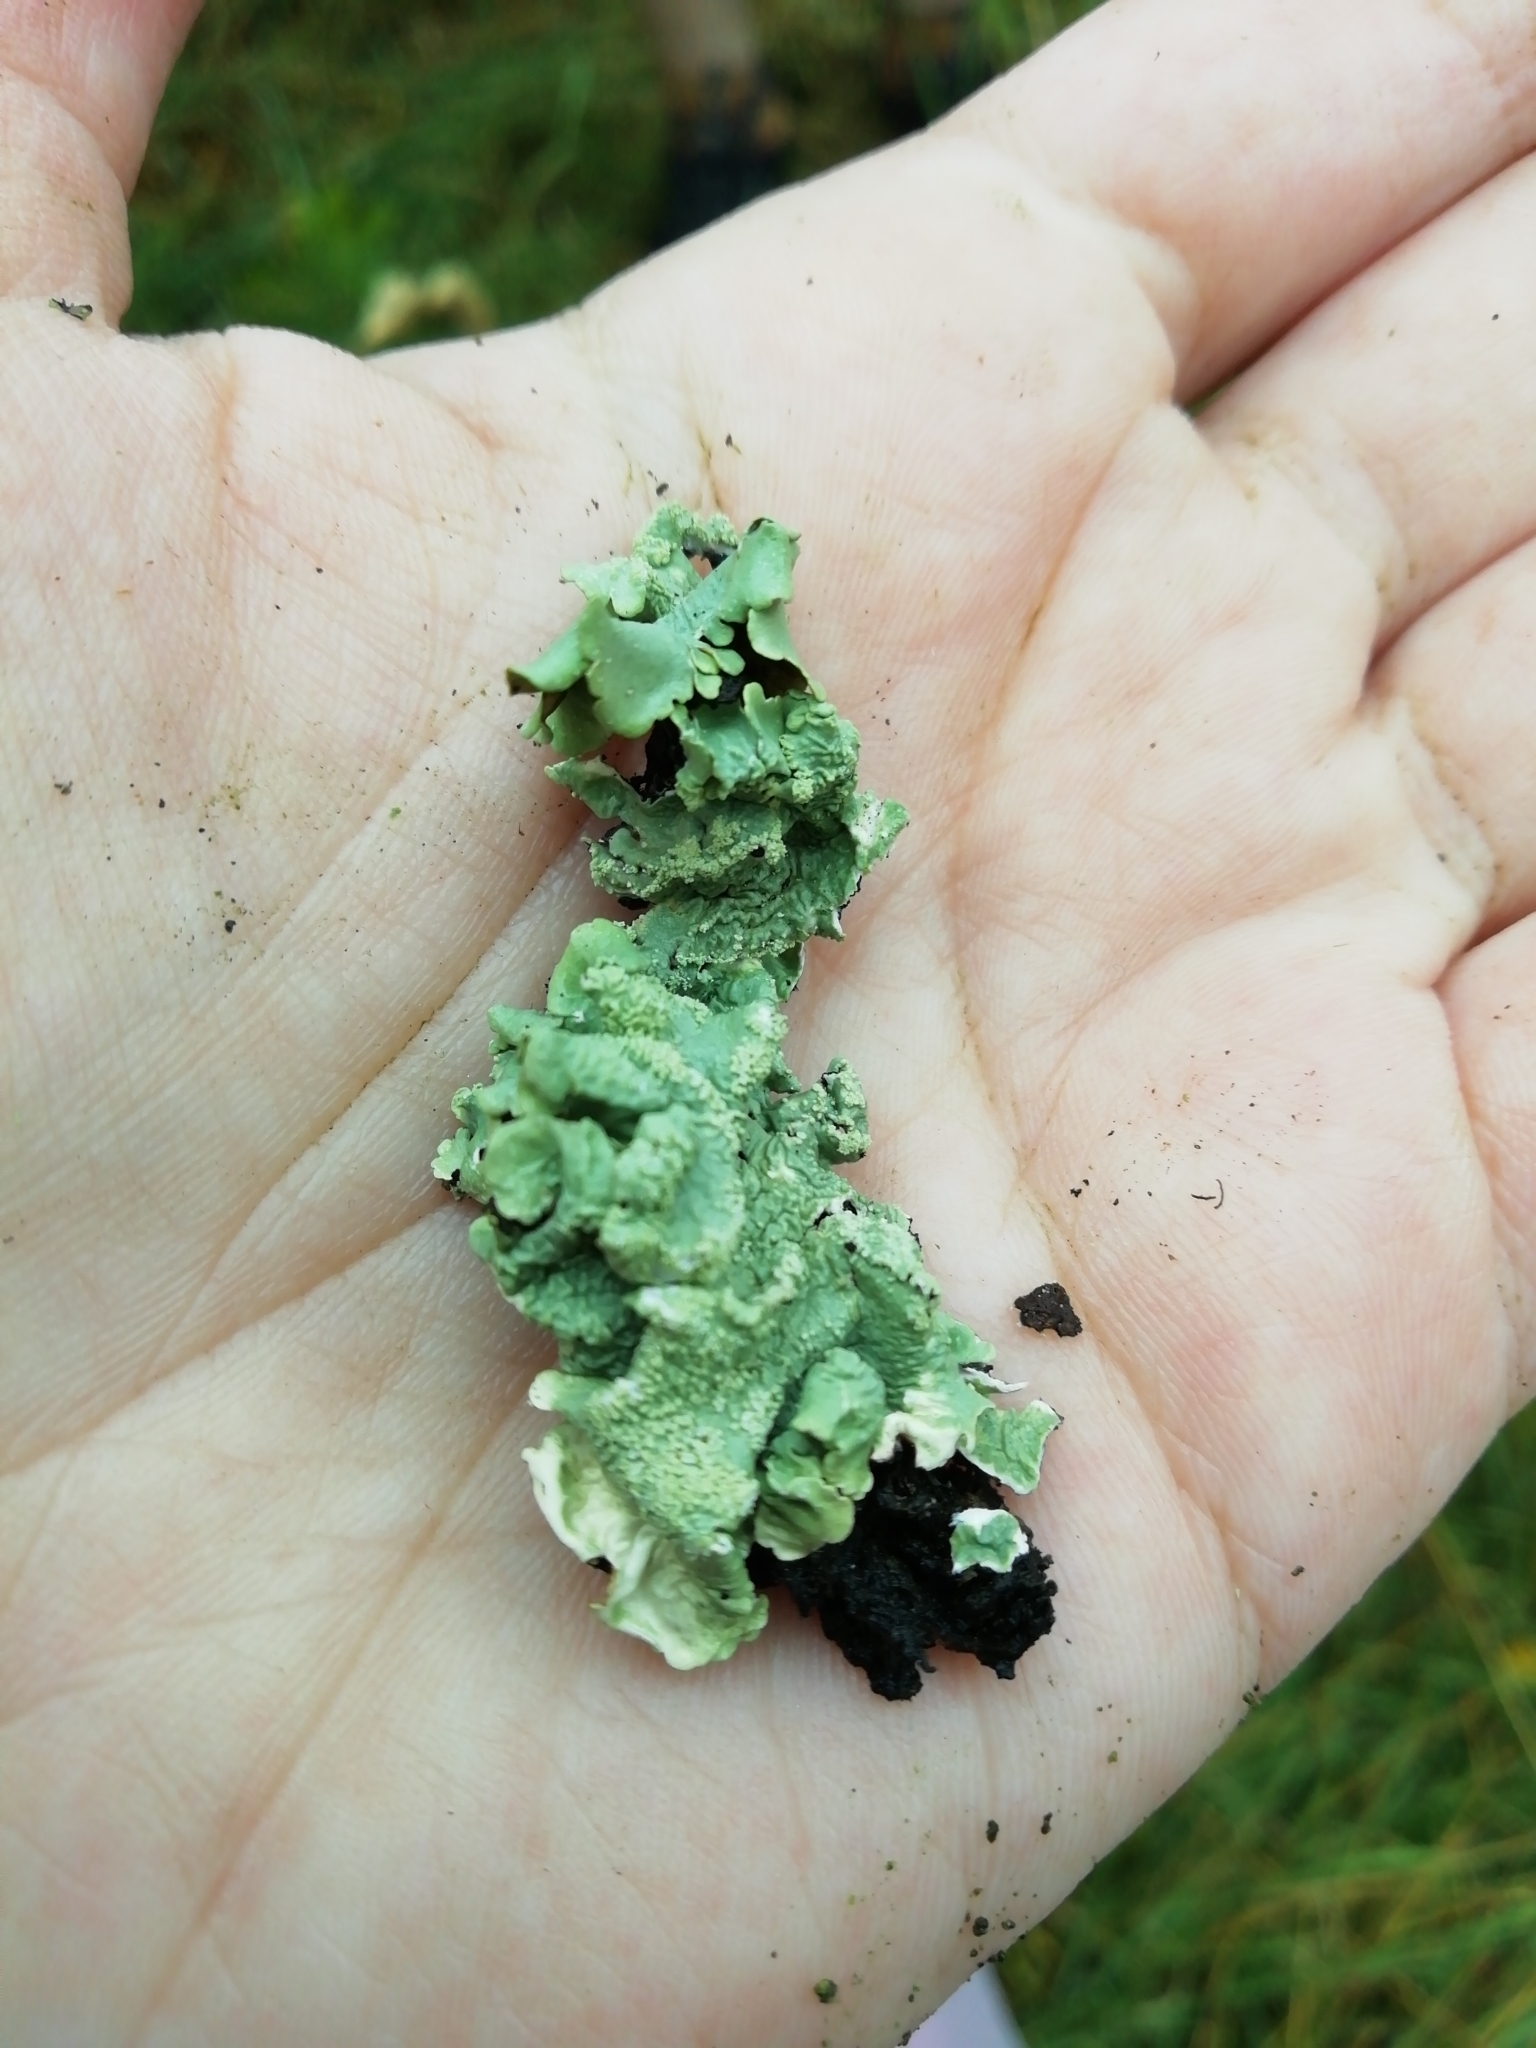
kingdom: Fungi
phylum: Ascomycota
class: Lecanoromycetes
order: Lecanorales
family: Parmeliaceae
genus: Flavoparmelia
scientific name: Flavoparmelia caperata
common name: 40-mile per hour lichen
